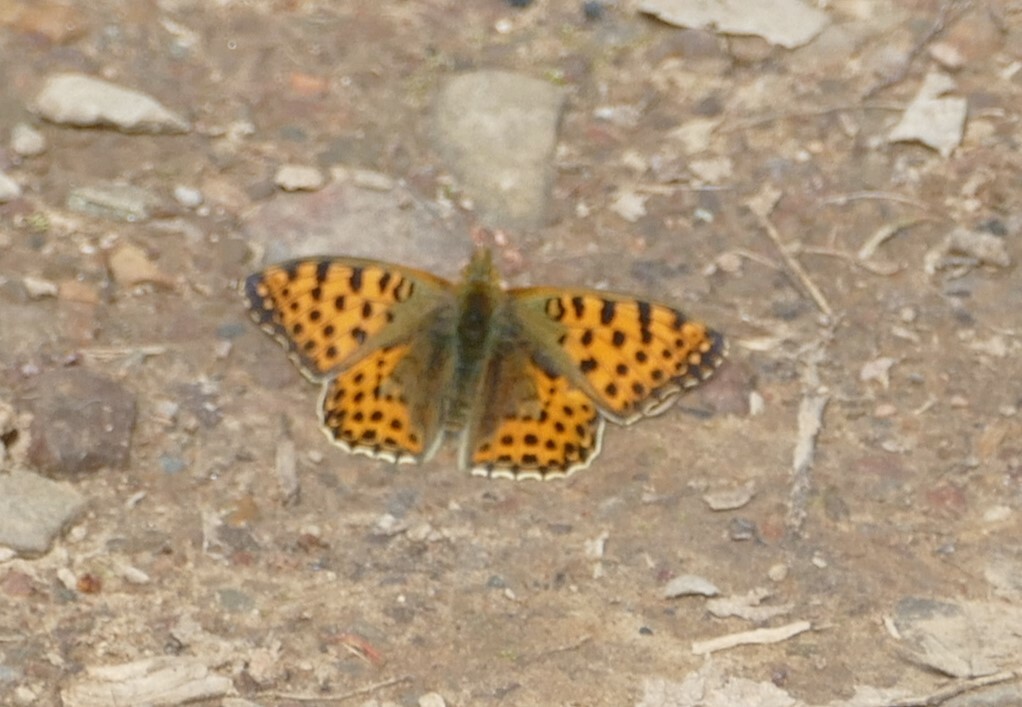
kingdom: Animalia
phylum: Arthropoda
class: Insecta
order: Lepidoptera
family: Nymphalidae
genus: Issoria
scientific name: Issoria lathonia
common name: Queen of spain fritillary
